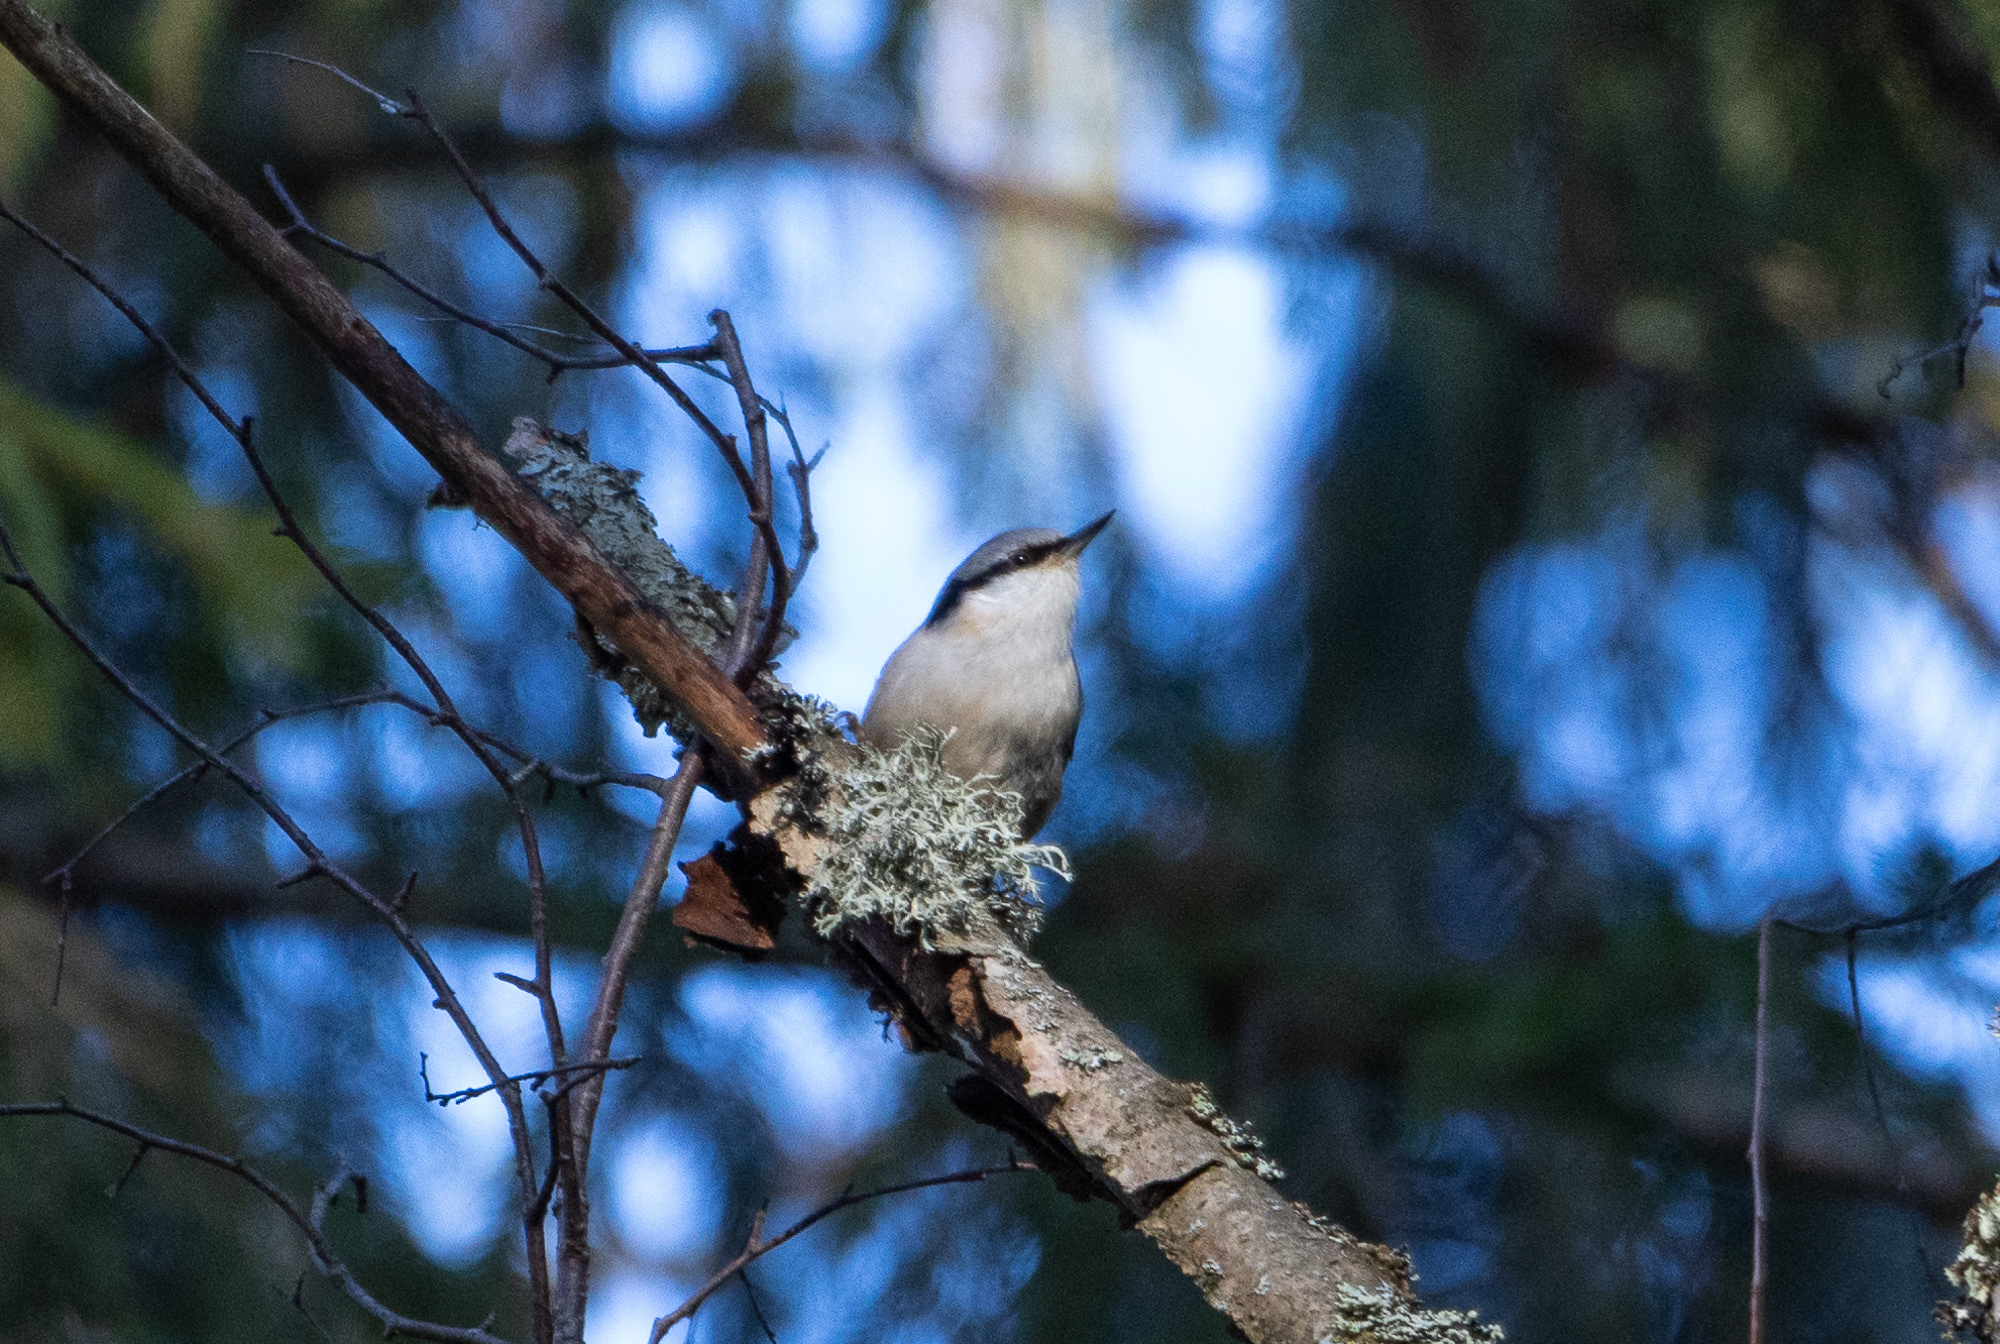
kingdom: Animalia
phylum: Chordata
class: Aves
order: Passeriformes
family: Sittidae
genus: Sitta
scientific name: Sitta europaea
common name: Eurasian nuthatch
